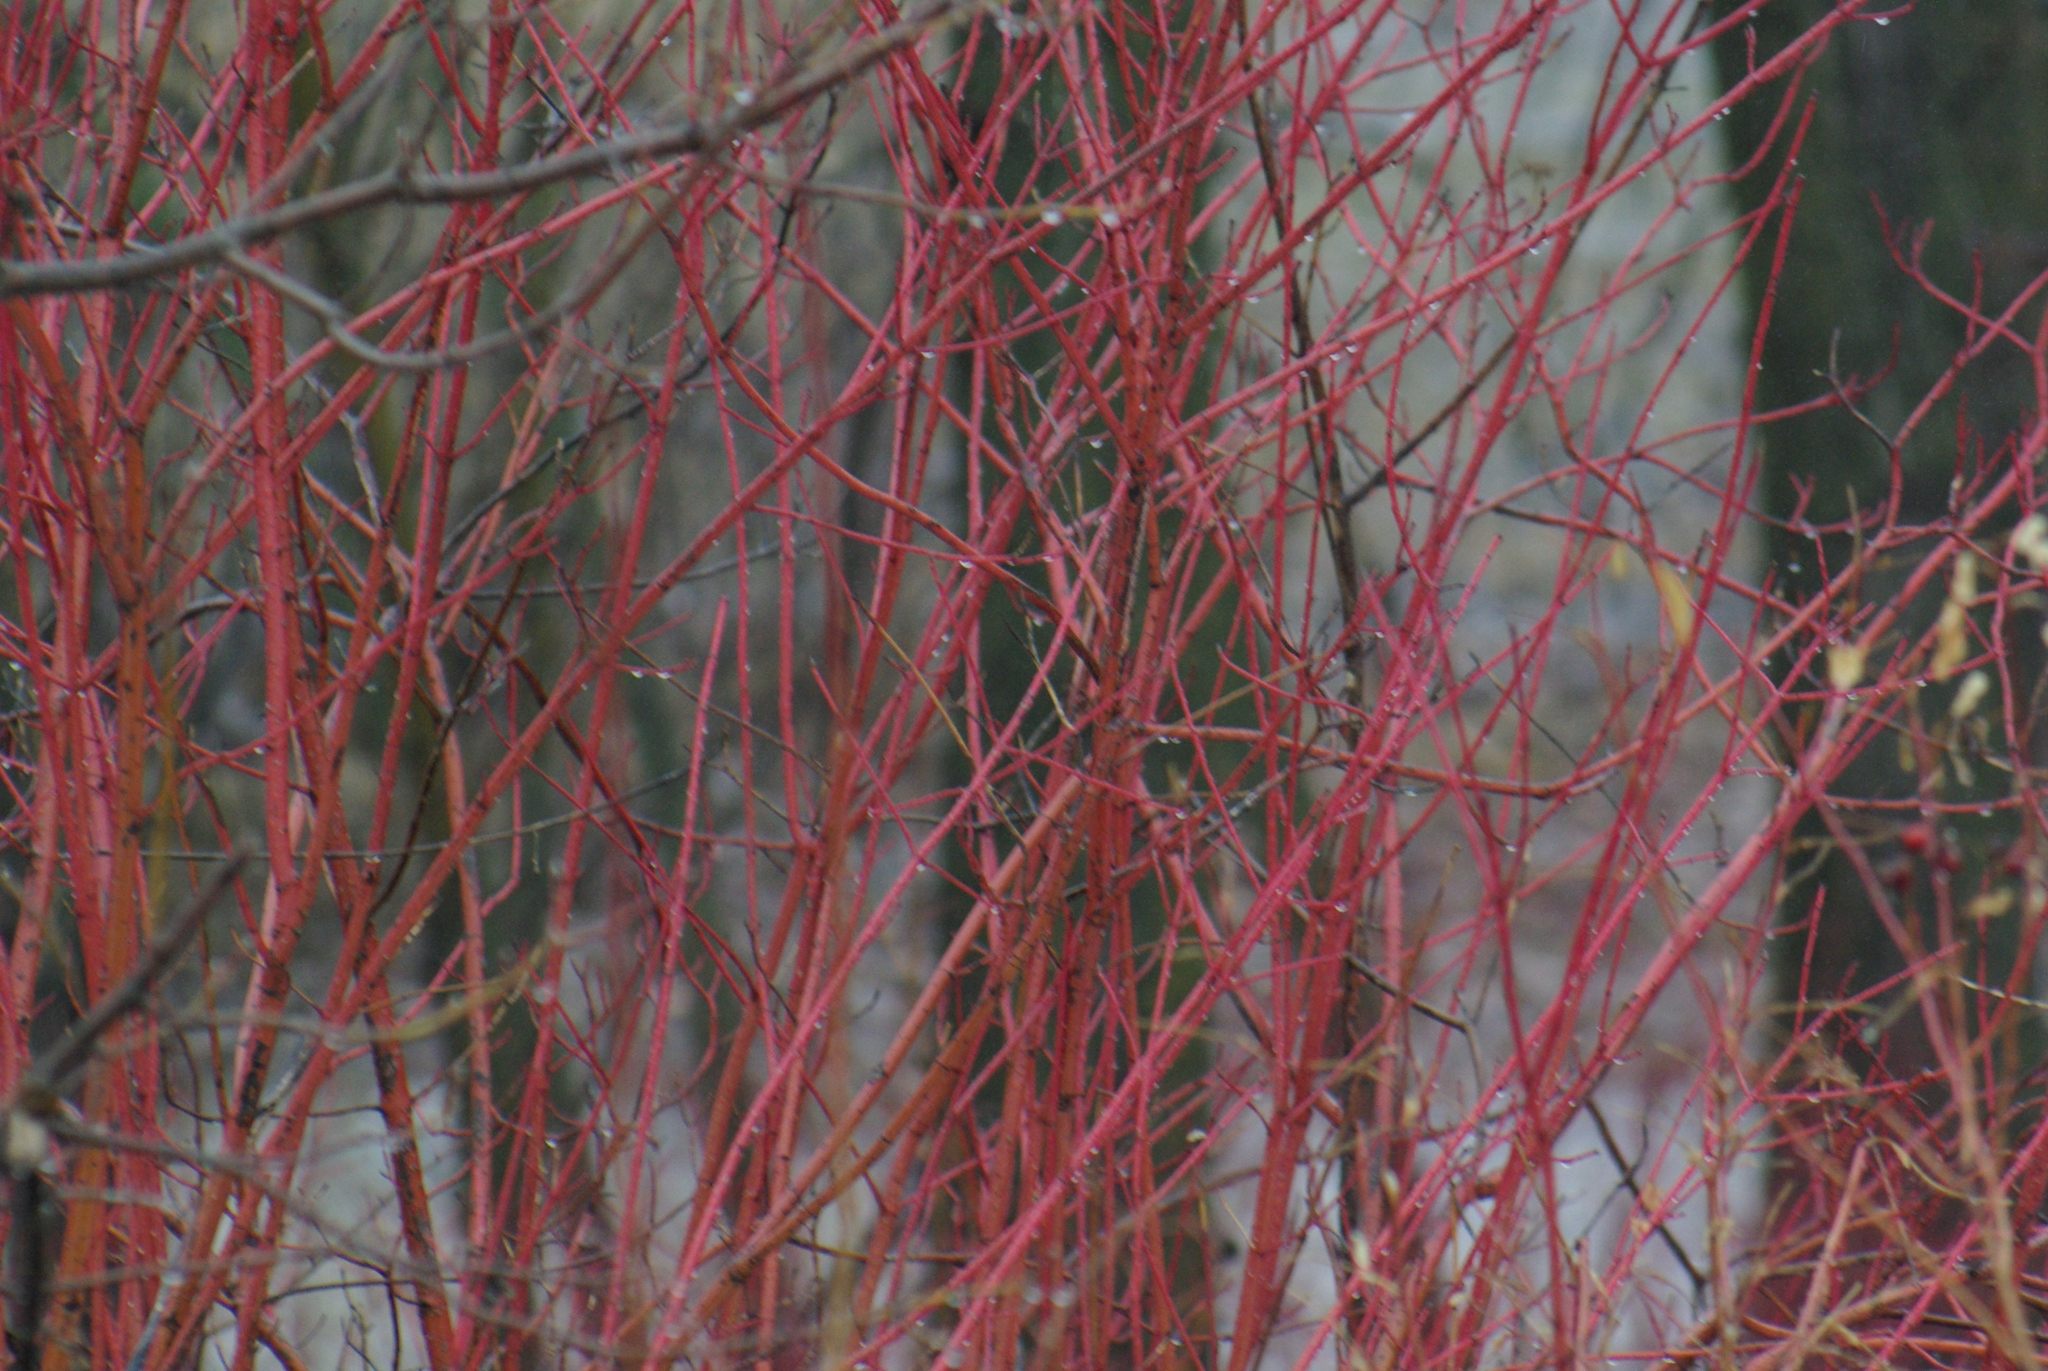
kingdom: Plantae
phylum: Tracheophyta
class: Magnoliopsida
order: Cornales
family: Cornaceae
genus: Cornus
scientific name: Cornus sericea
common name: Red-osier dogwood
